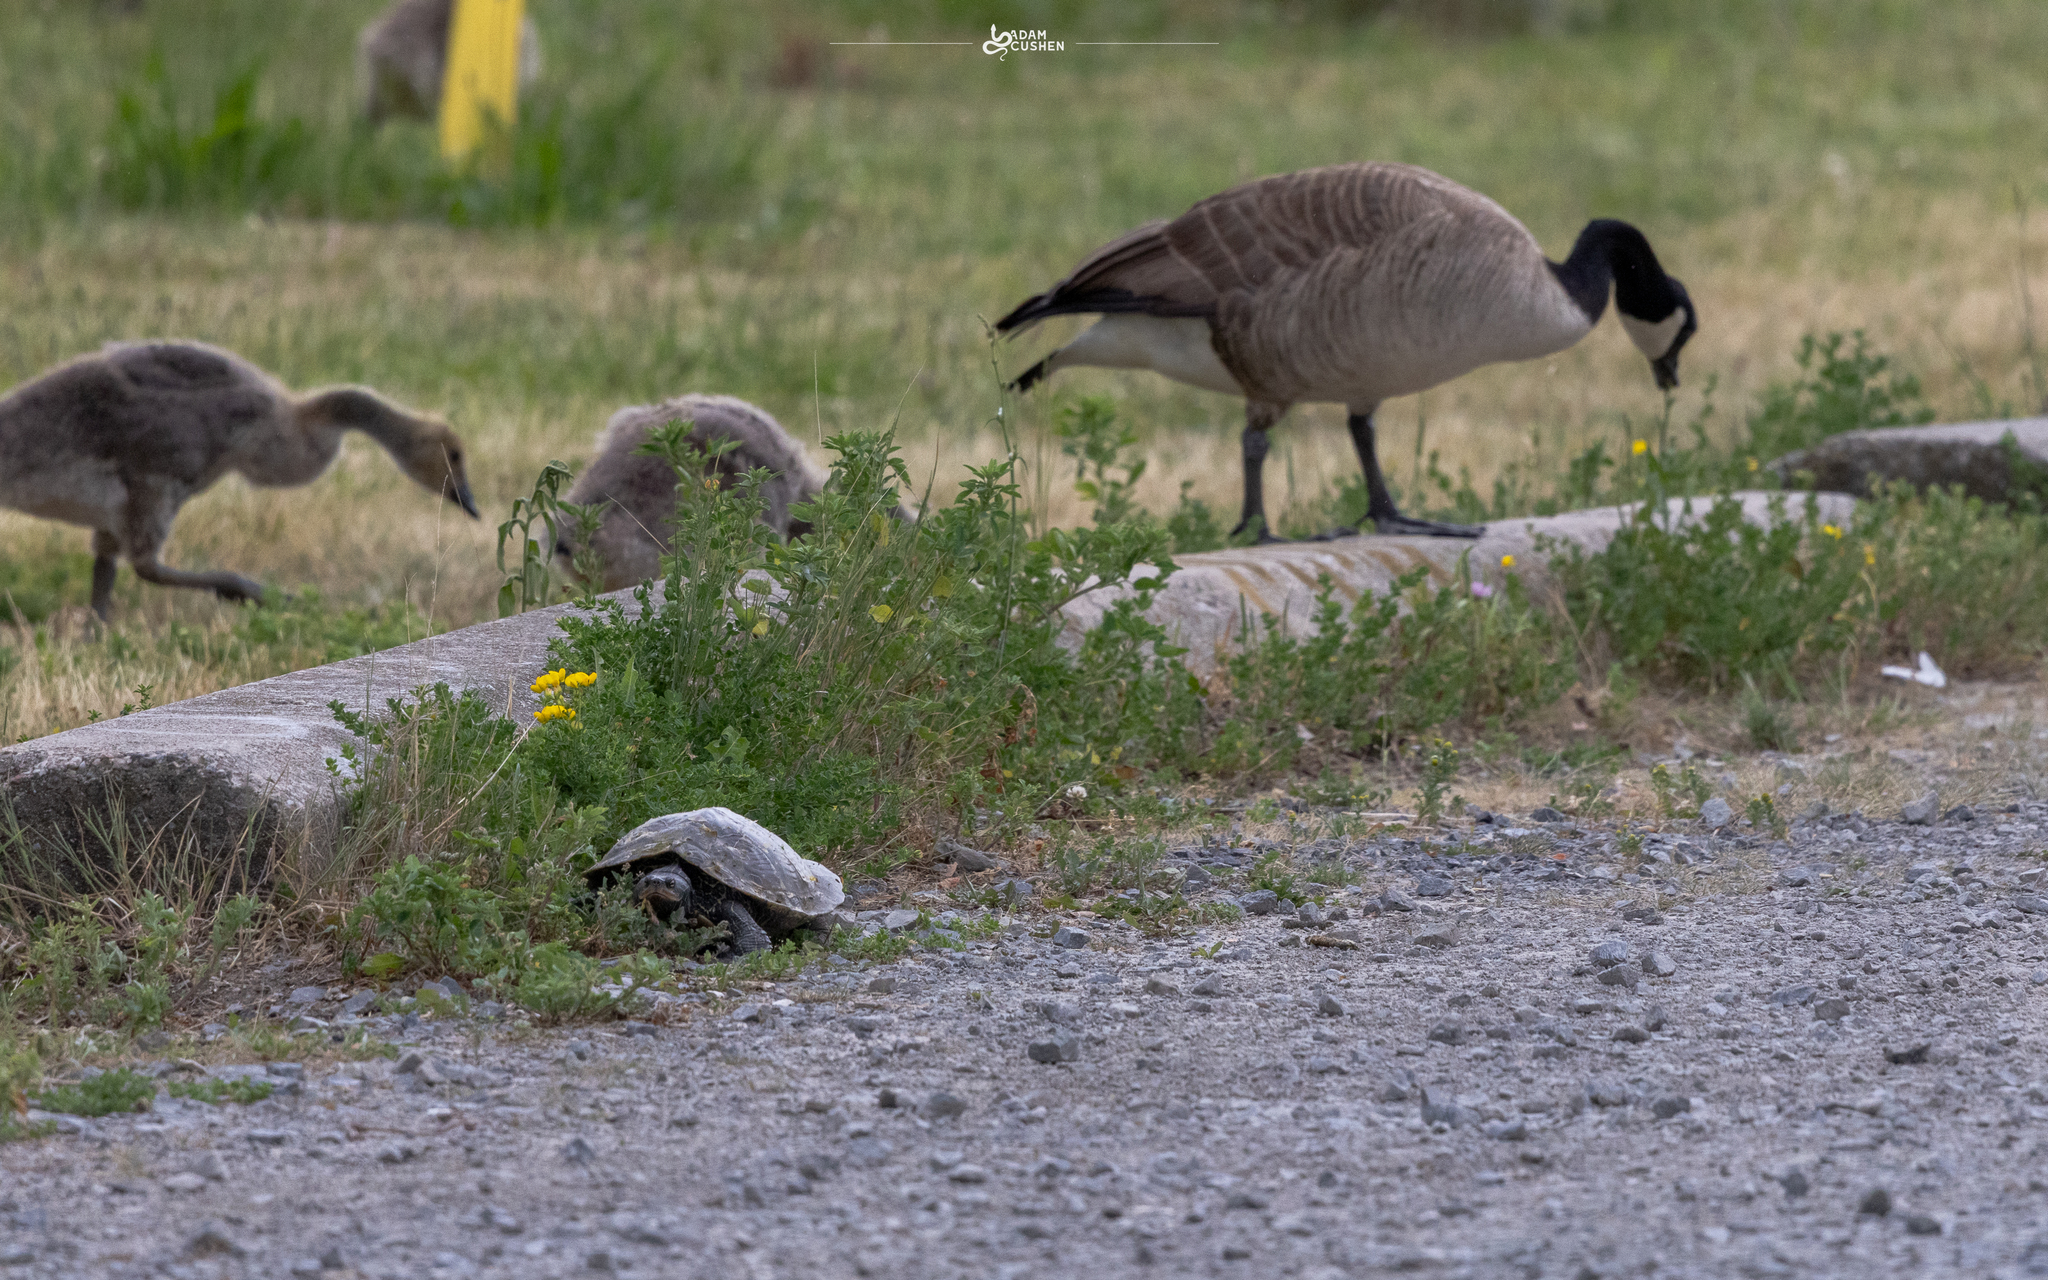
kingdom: Animalia
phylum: Chordata
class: Testudines
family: Emydidae
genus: Graptemys
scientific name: Graptemys geographica
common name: Common map turtle
